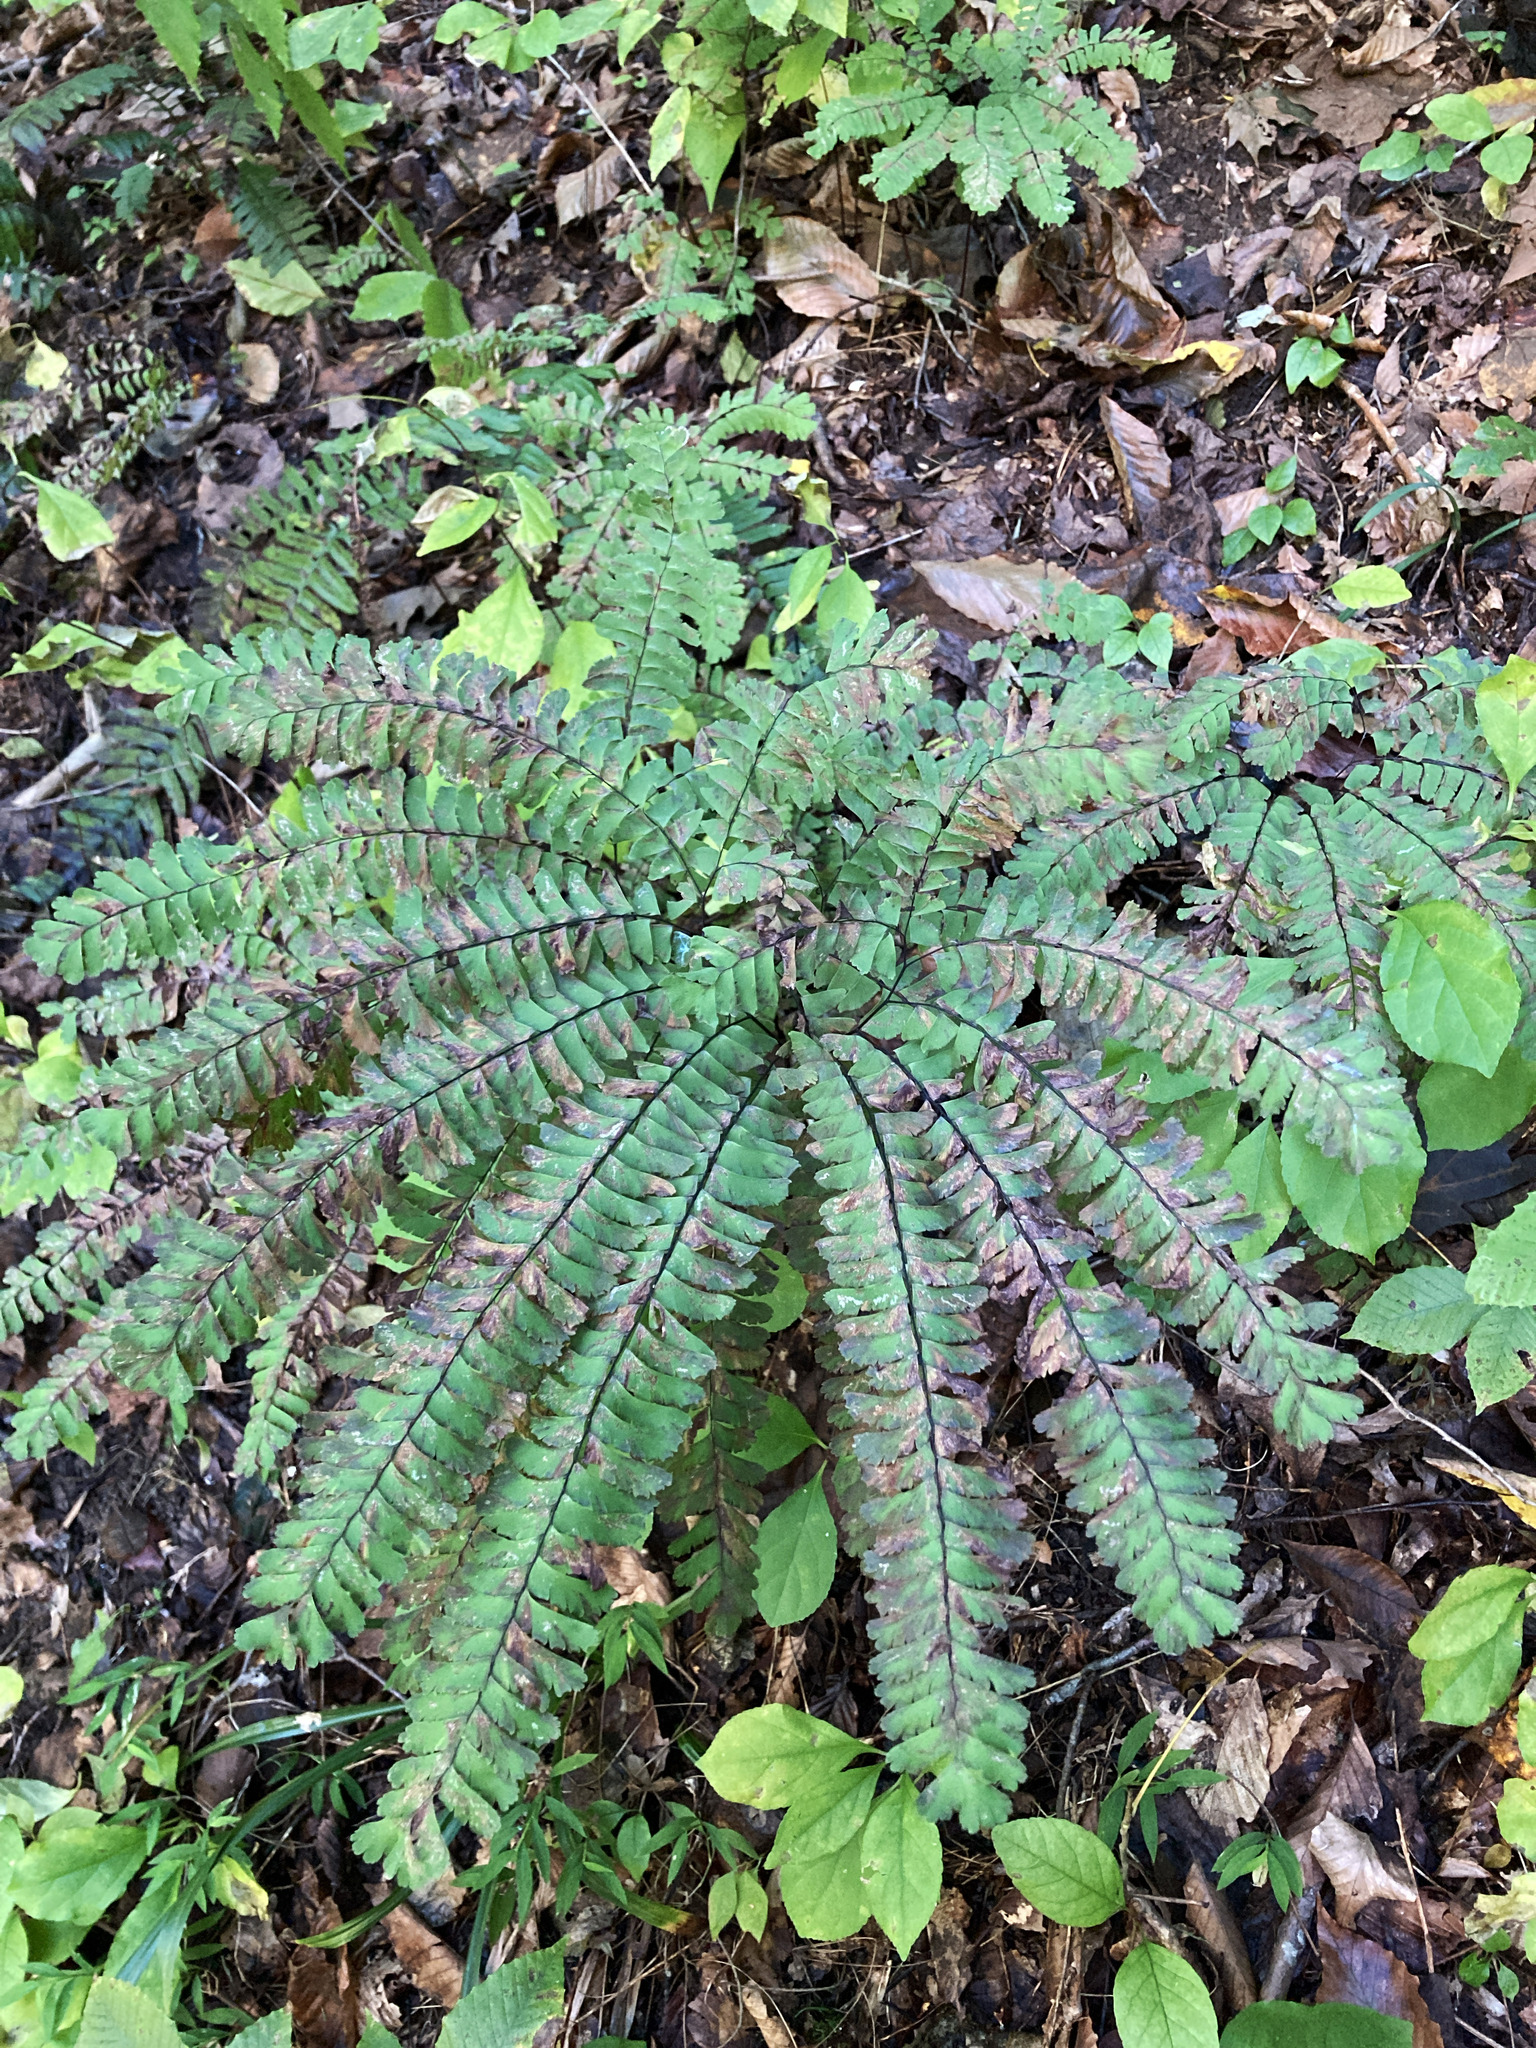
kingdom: Plantae
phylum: Tracheophyta
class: Polypodiopsida
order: Polypodiales
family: Pteridaceae
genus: Adiantum
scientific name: Adiantum pedatum
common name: Five-finger fern
